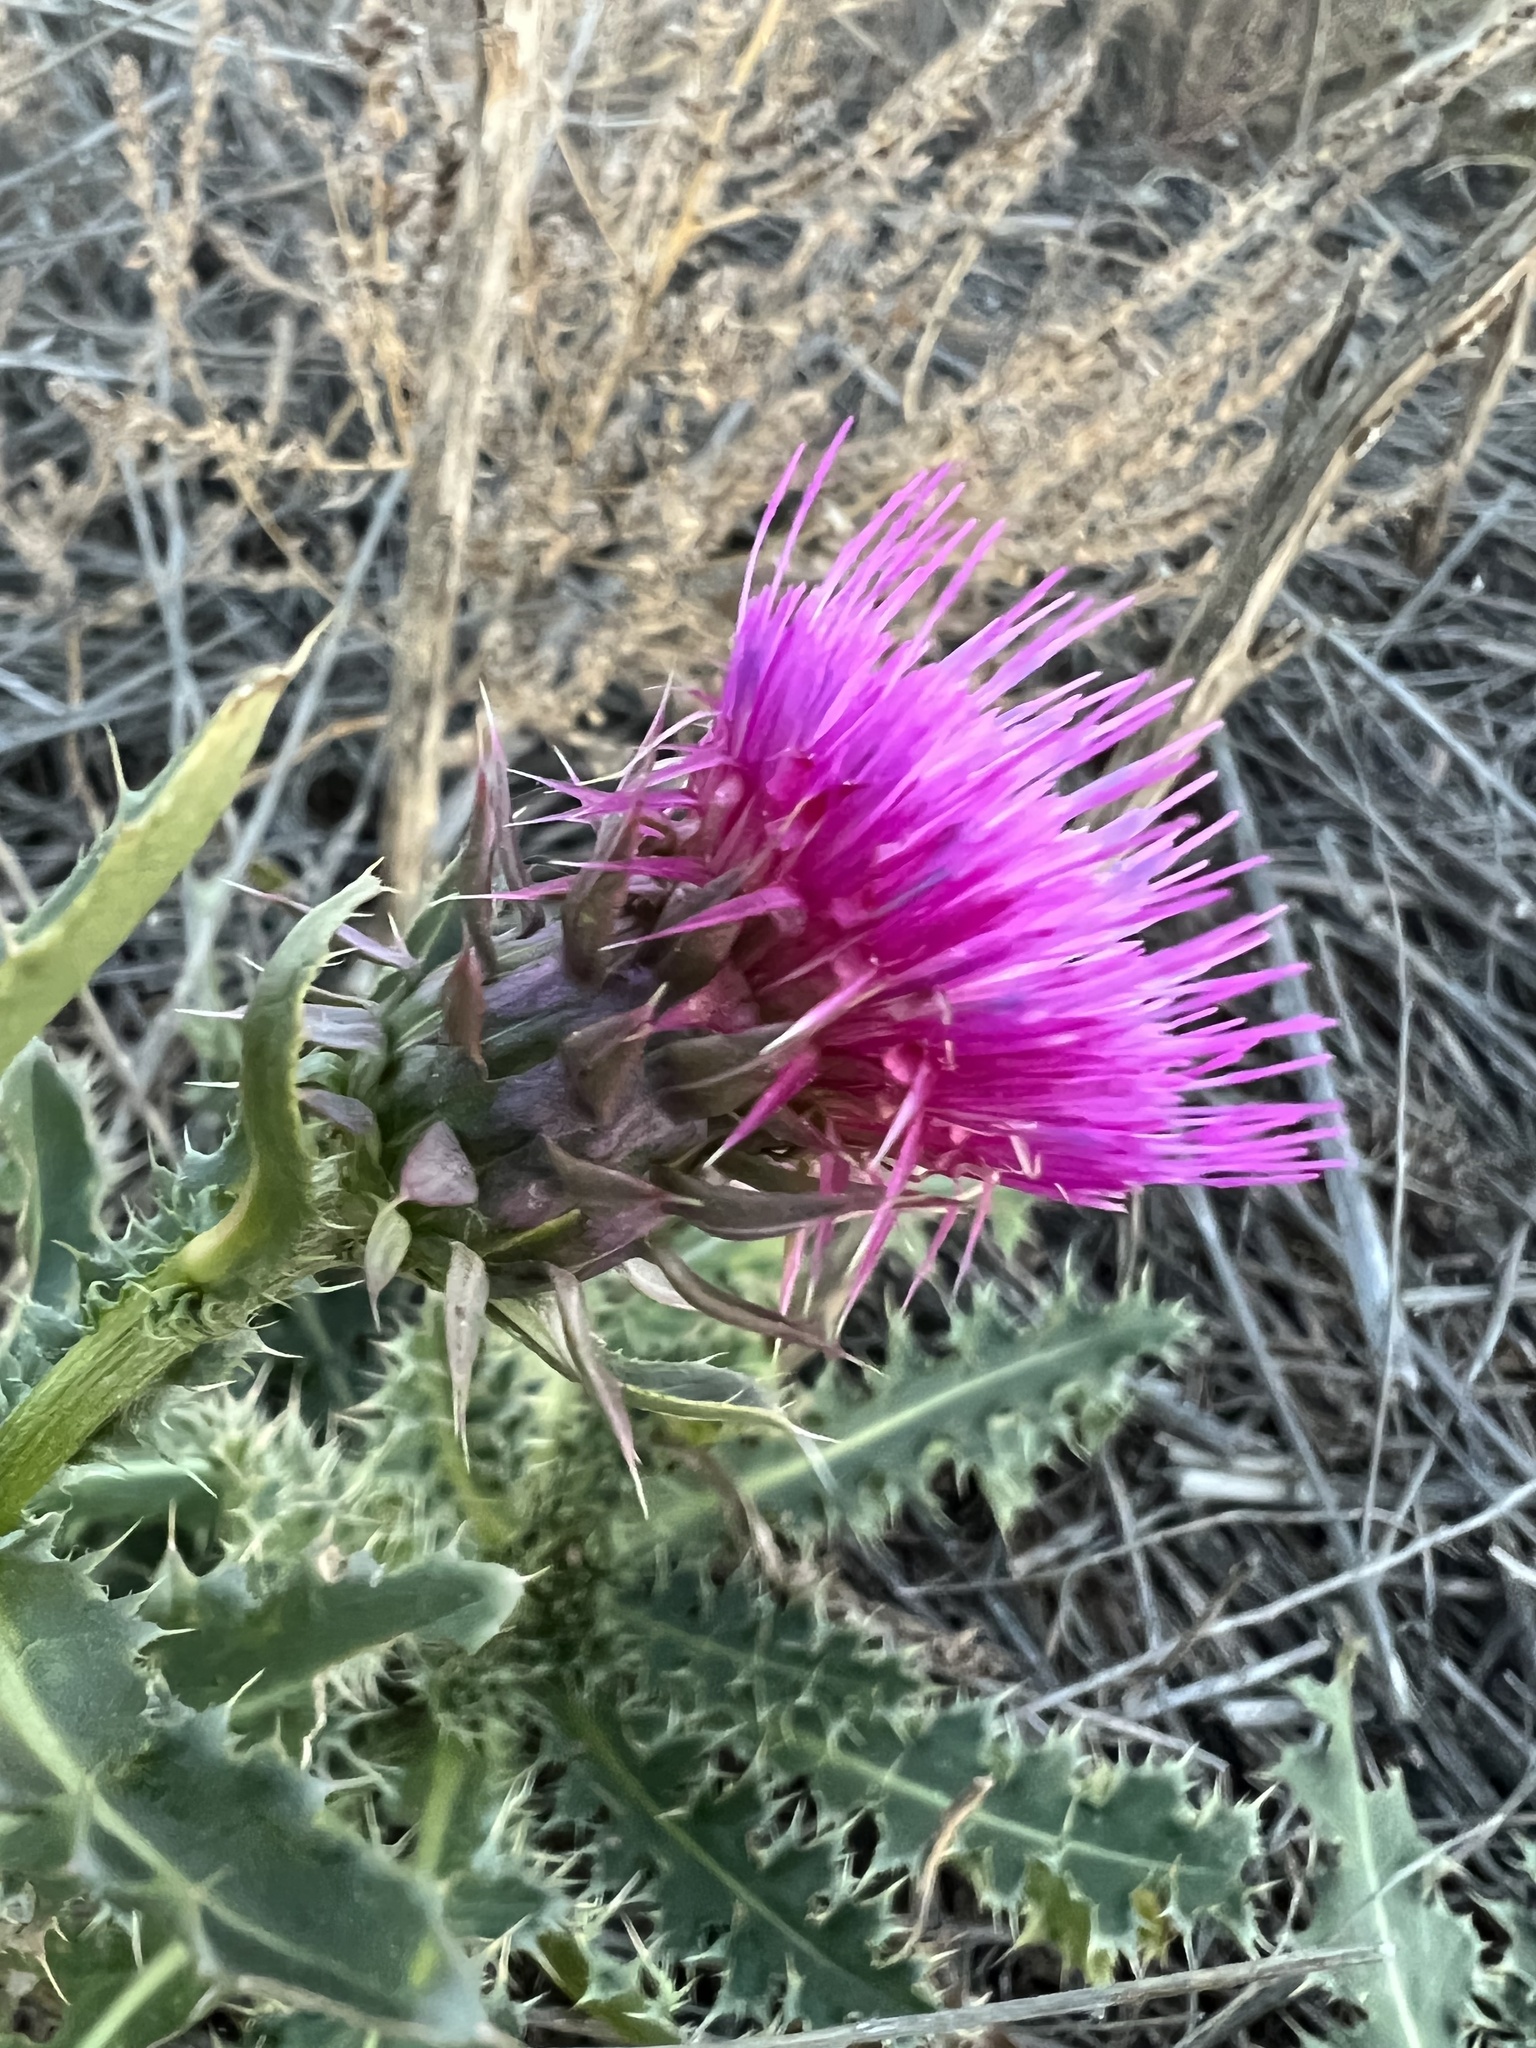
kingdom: Plantae
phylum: Tracheophyta
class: Magnoliopsida
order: Asterales
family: Asteraceae
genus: Carduus
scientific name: Carduus nutans
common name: Musk thistle
